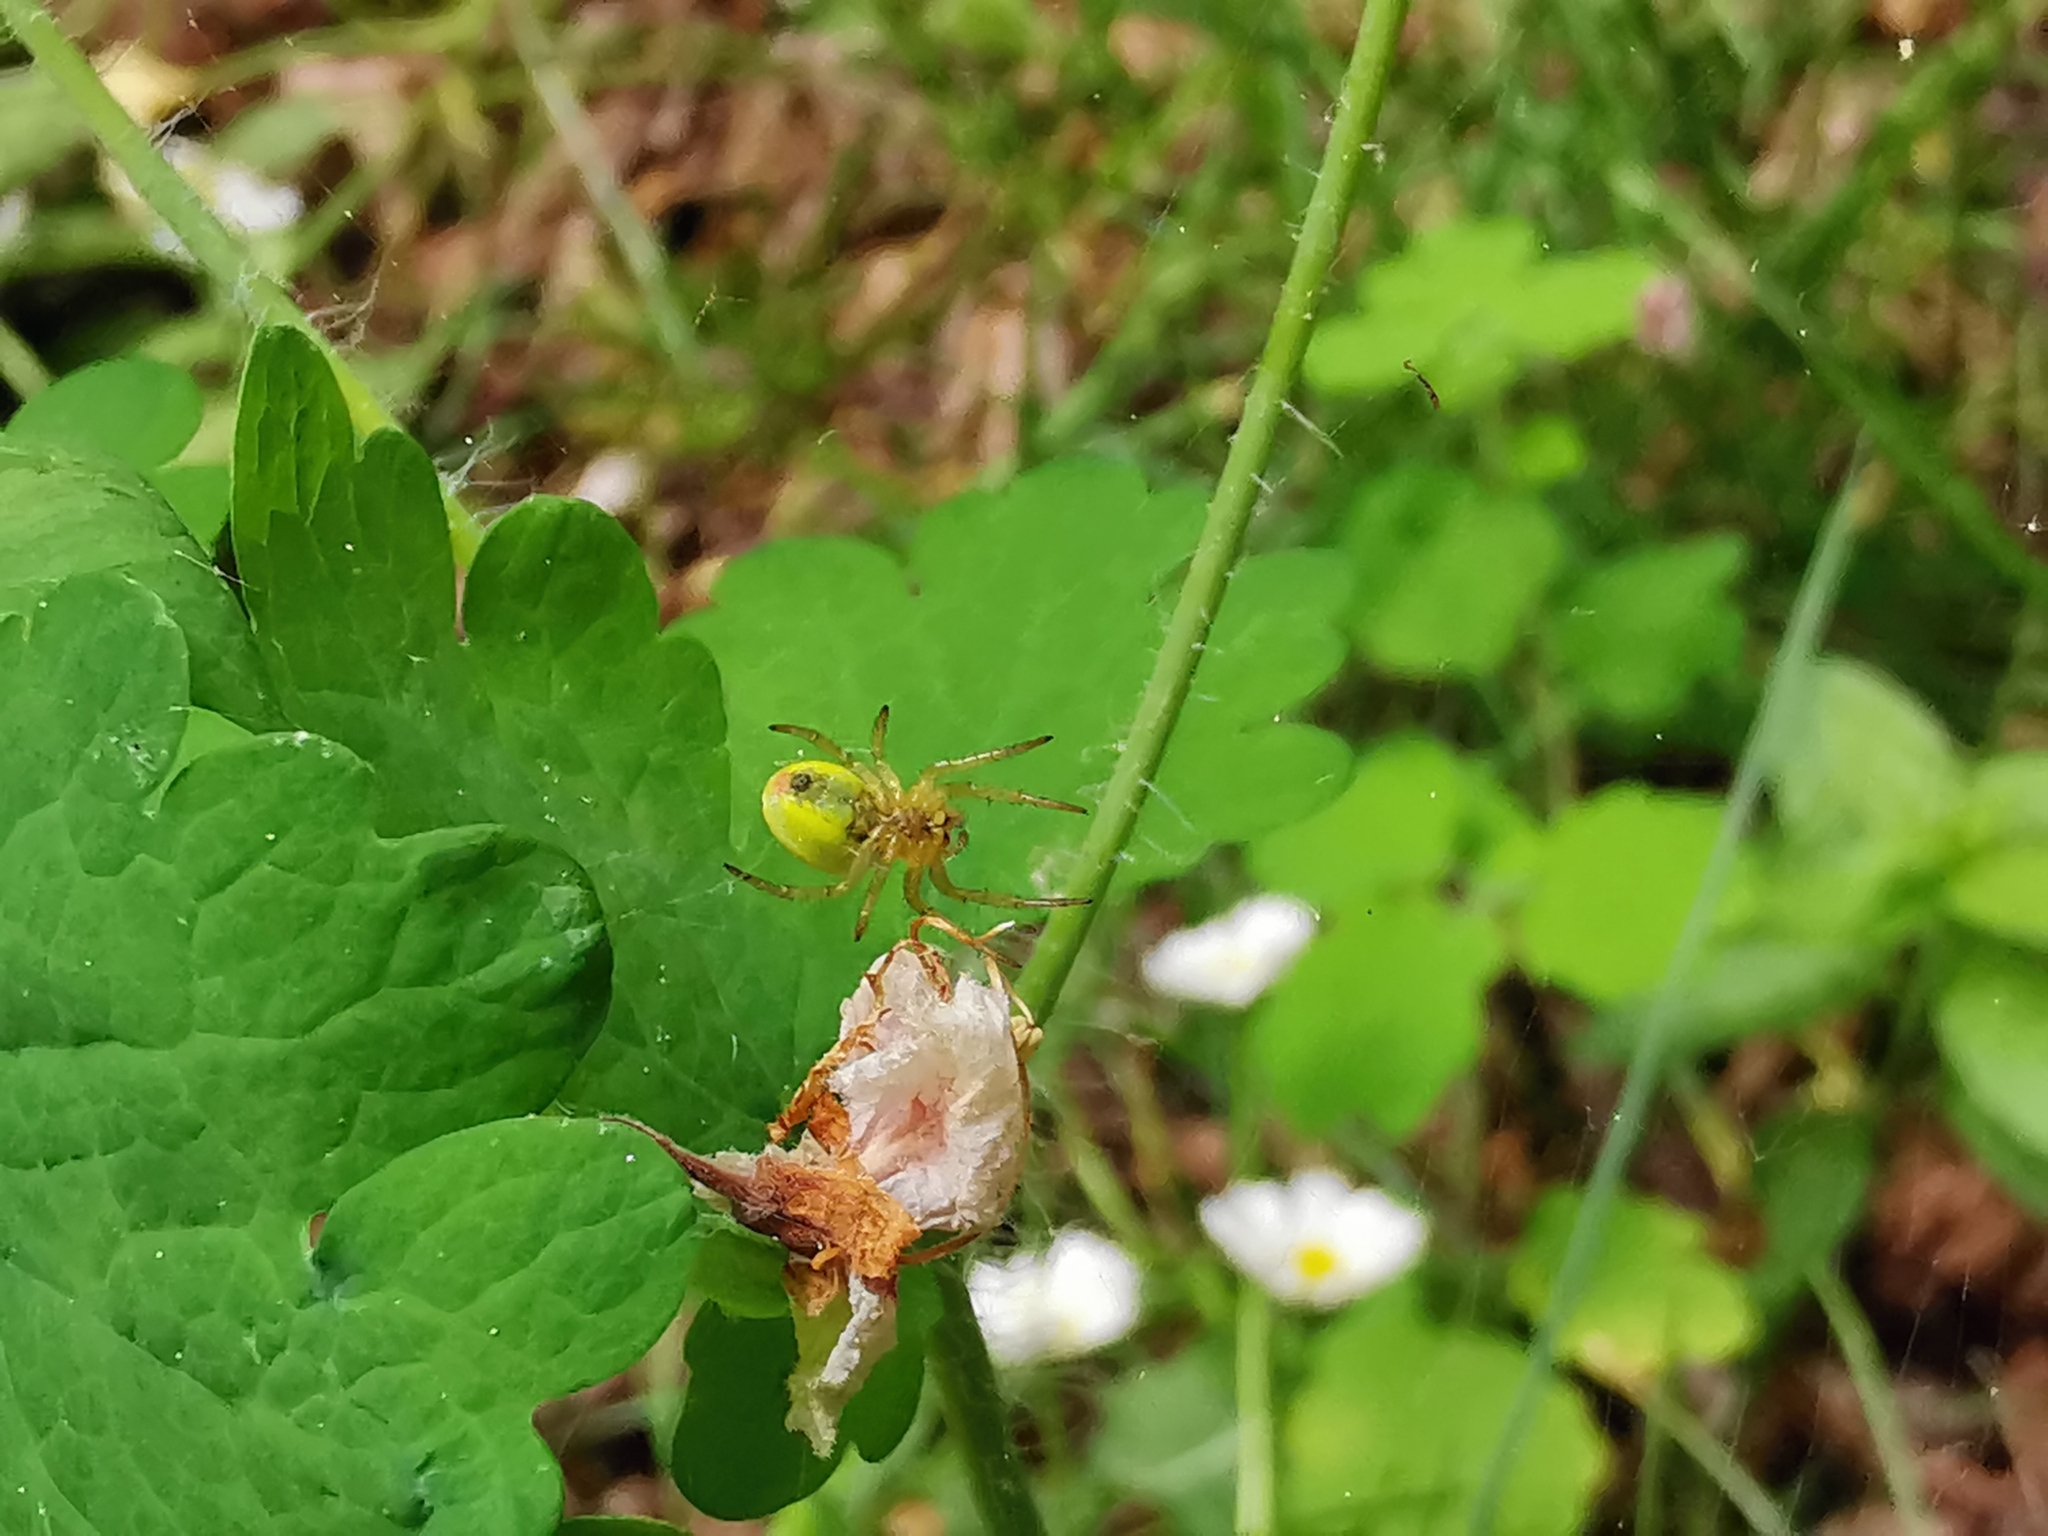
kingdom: Animalia
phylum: Arthropoda
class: Arachnida
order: Araneae
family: Araneidae
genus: Araniella
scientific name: Araniella
